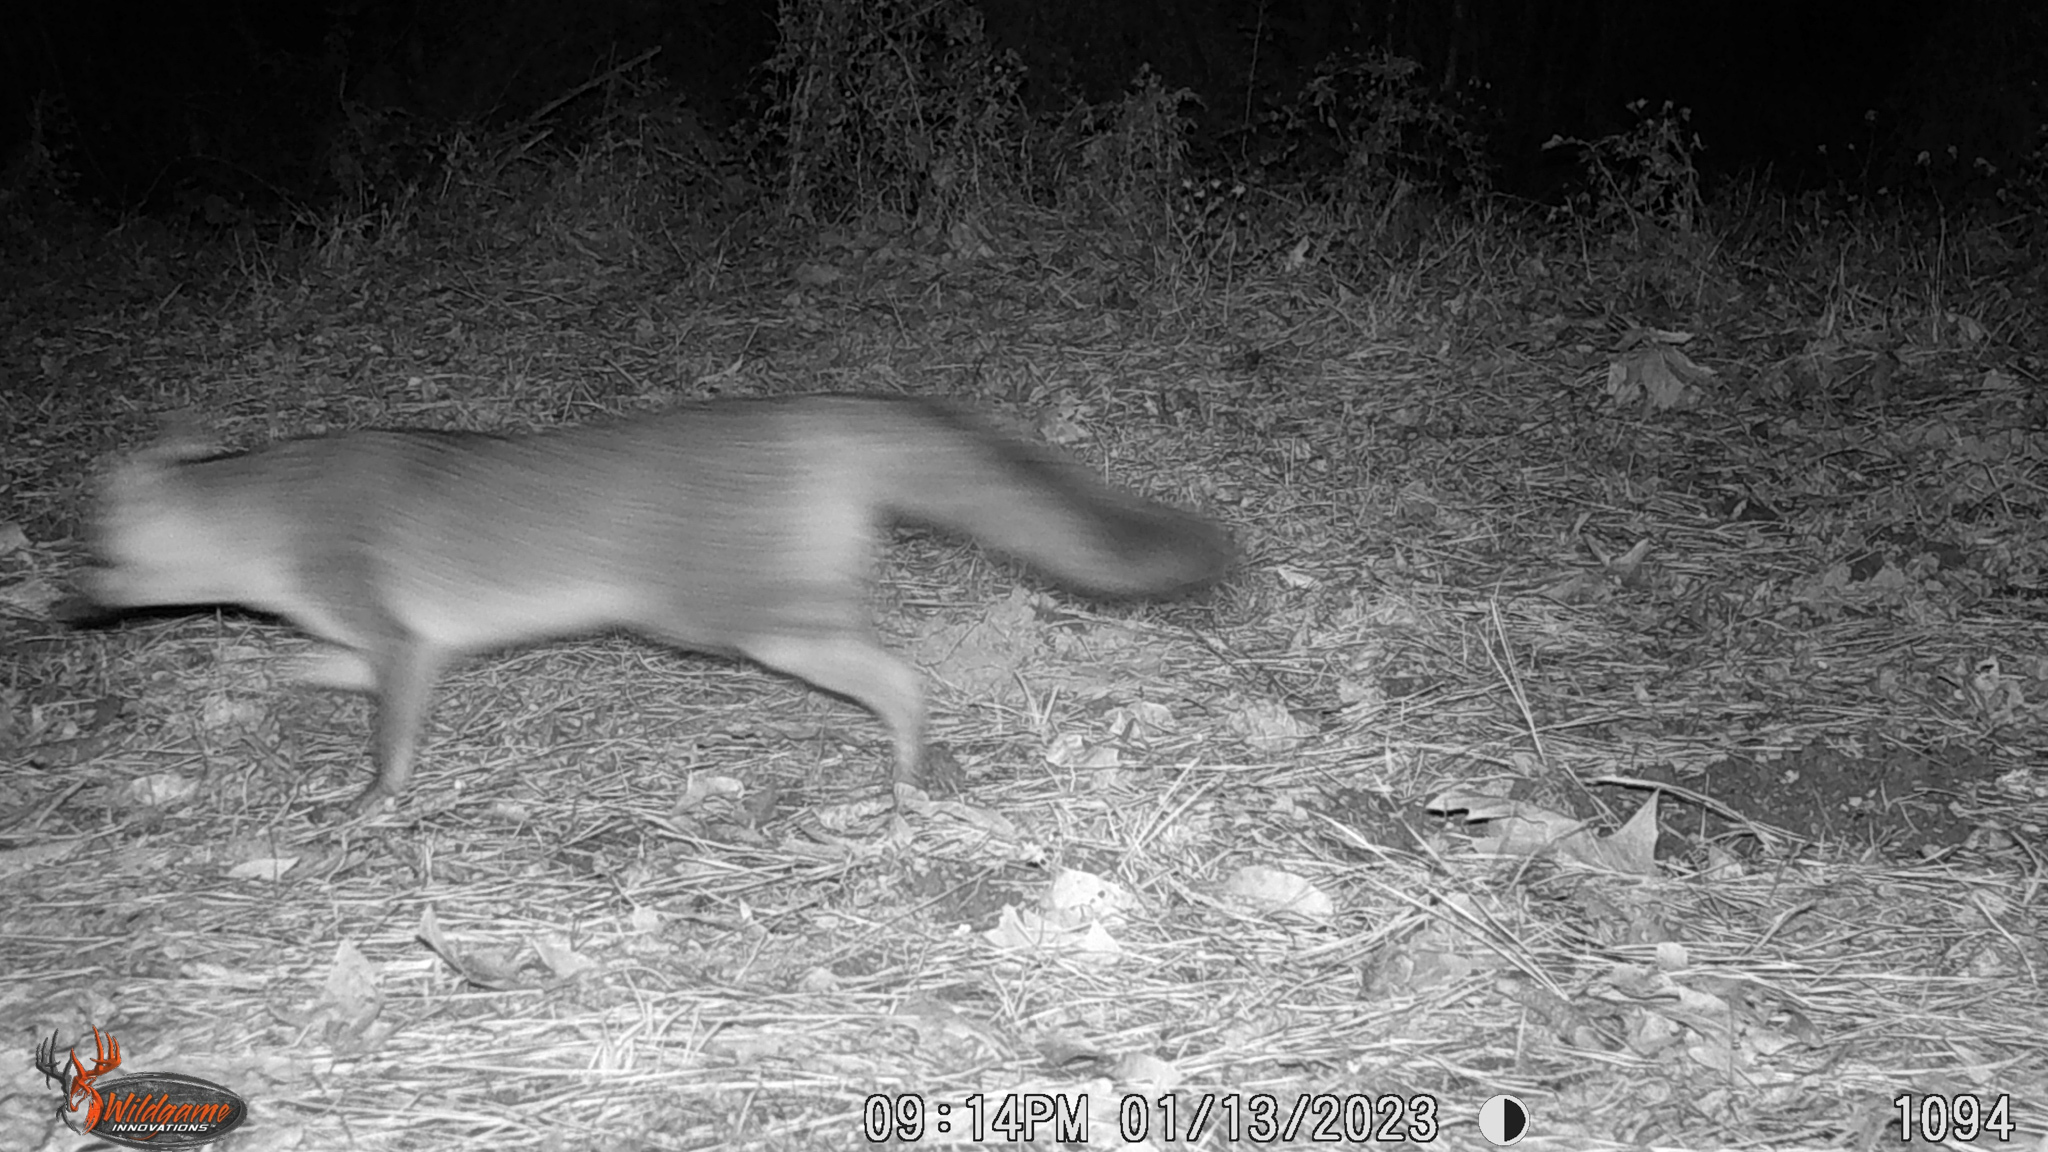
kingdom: Animalia
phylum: Chordata
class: Mammalia
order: Carnivora
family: Canidae
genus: Urocyon
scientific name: Urocyon cinereoargenteus
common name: Gray fox
